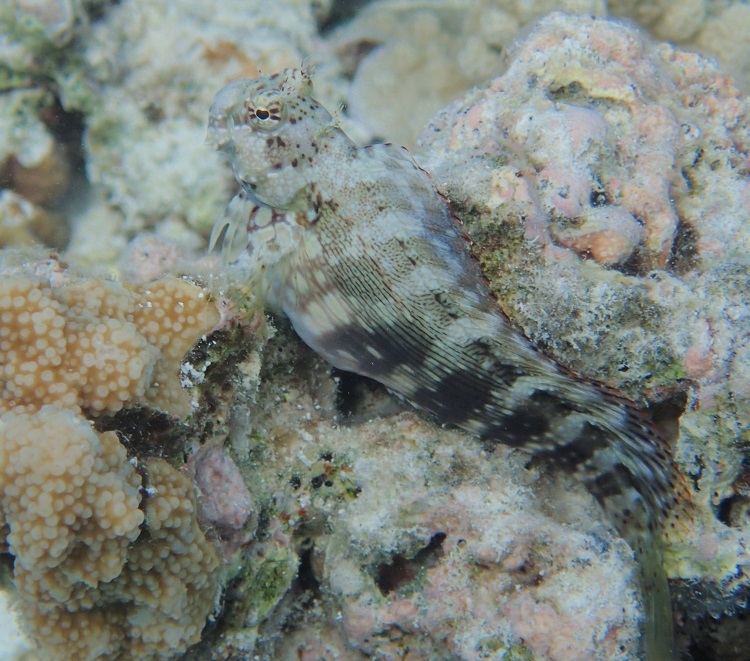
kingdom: Animalia
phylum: Chordata
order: Perciformes
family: Blenniidae
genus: Salarias
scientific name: Salarias fasciatus
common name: Jewelled blenny
